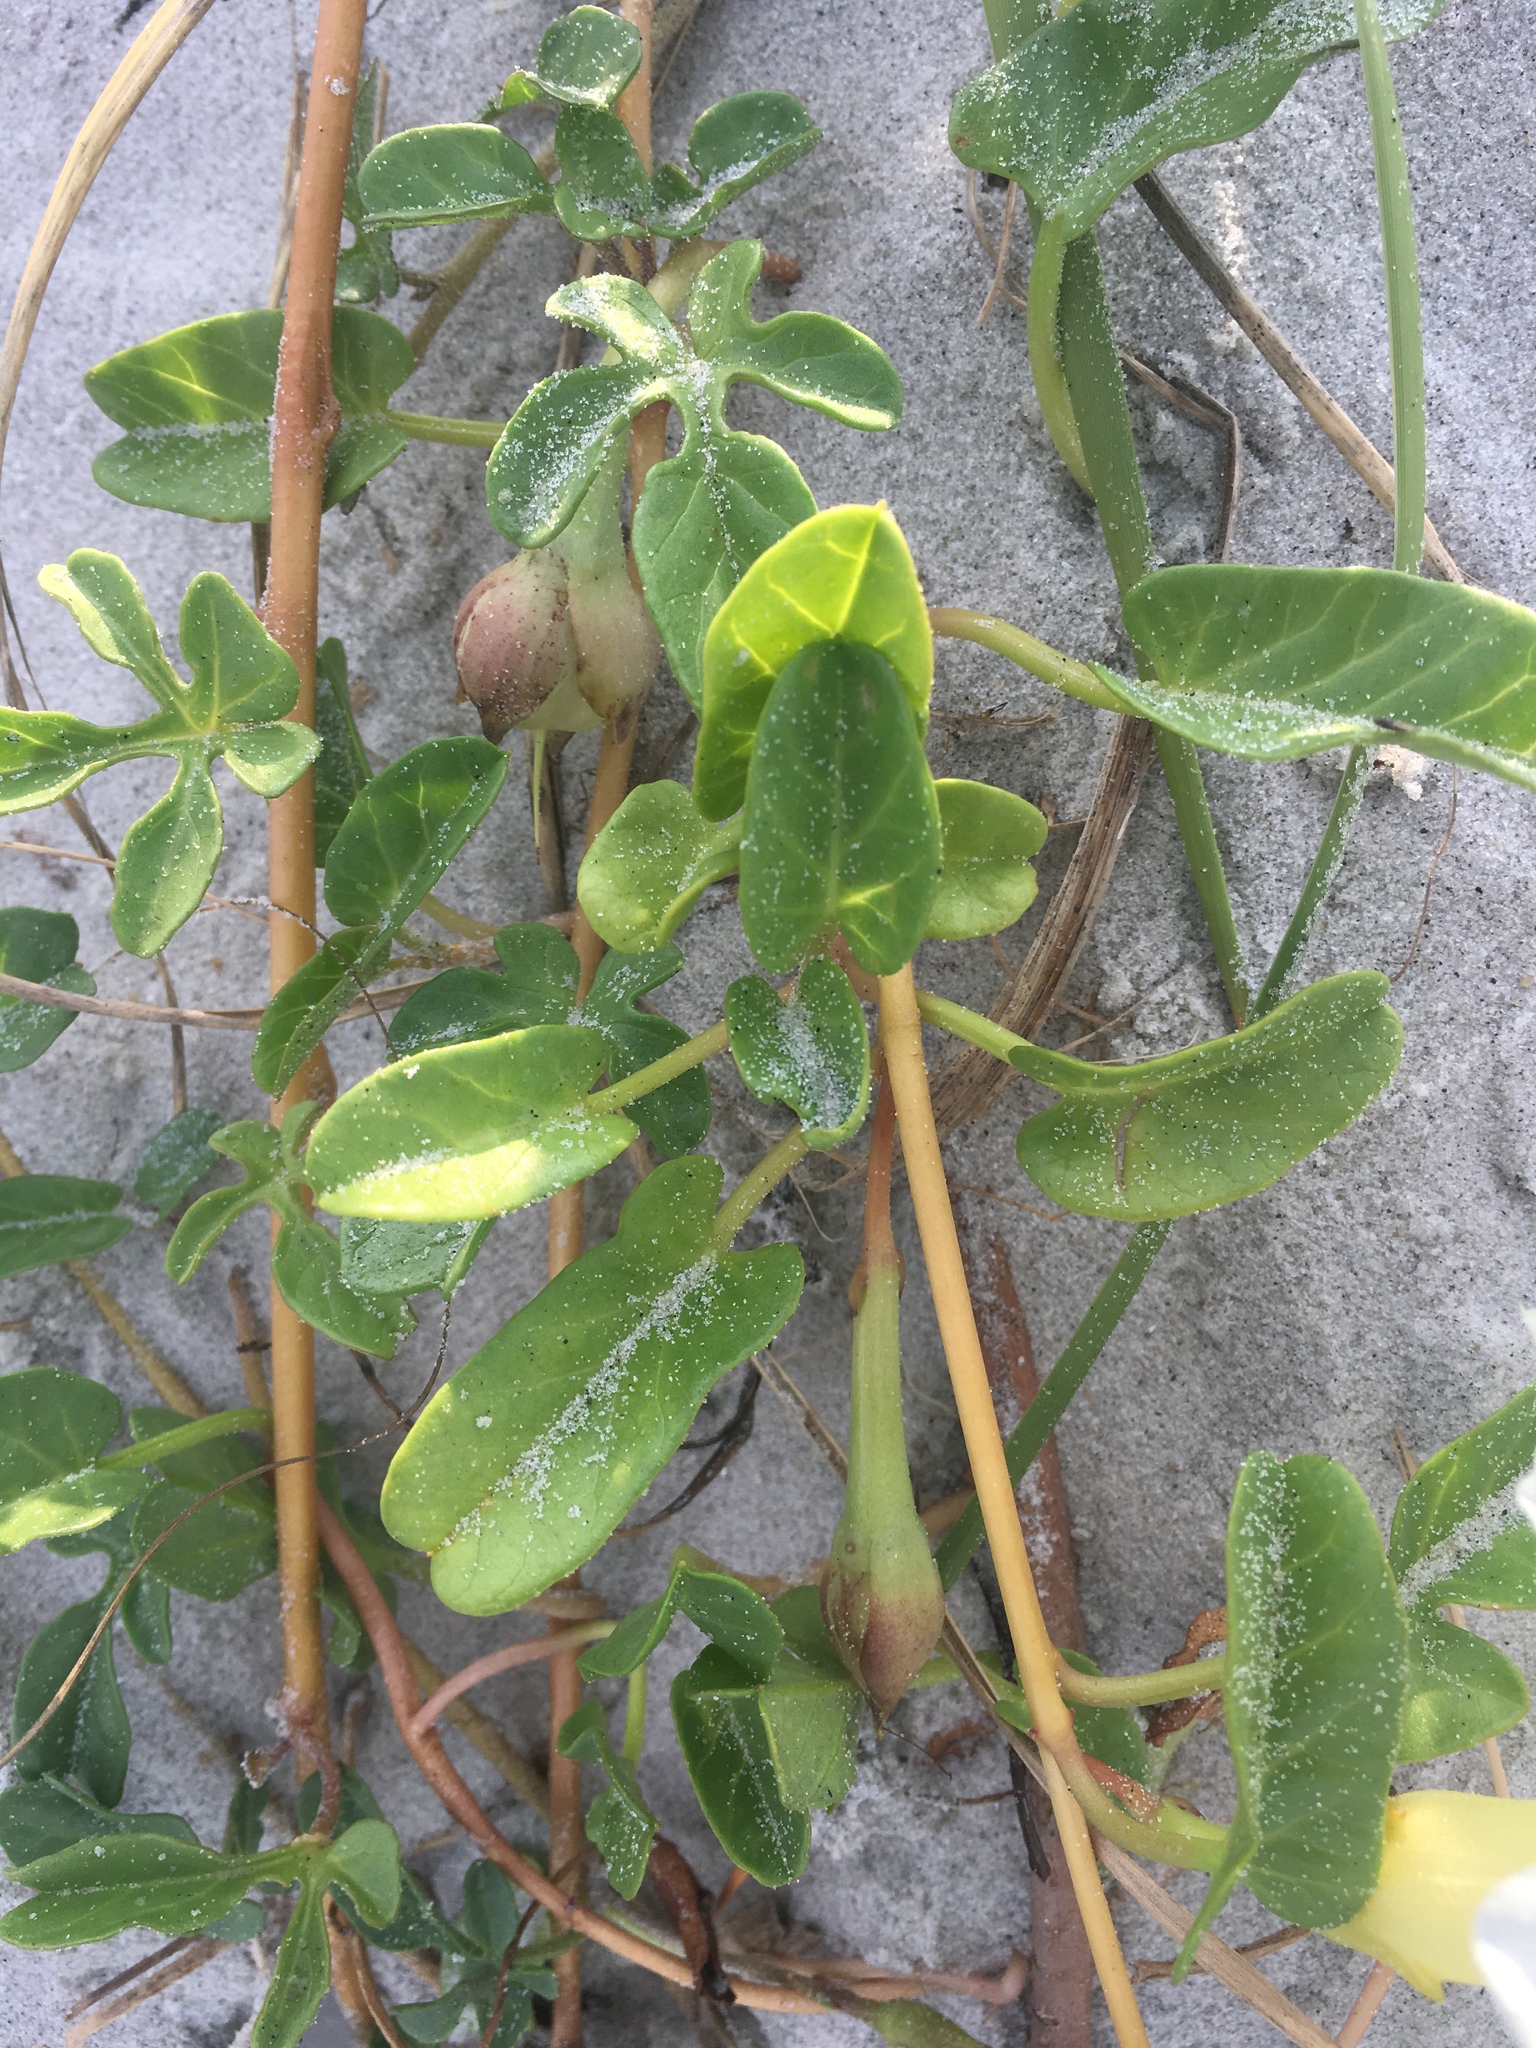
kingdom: Plantae
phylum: Tracheophyta
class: Magnoliopsida
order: Solanales
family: Convolvulaceae
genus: Ipomoea
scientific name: Ipomoea imperati
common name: Fiddle-leaf morning-glory
